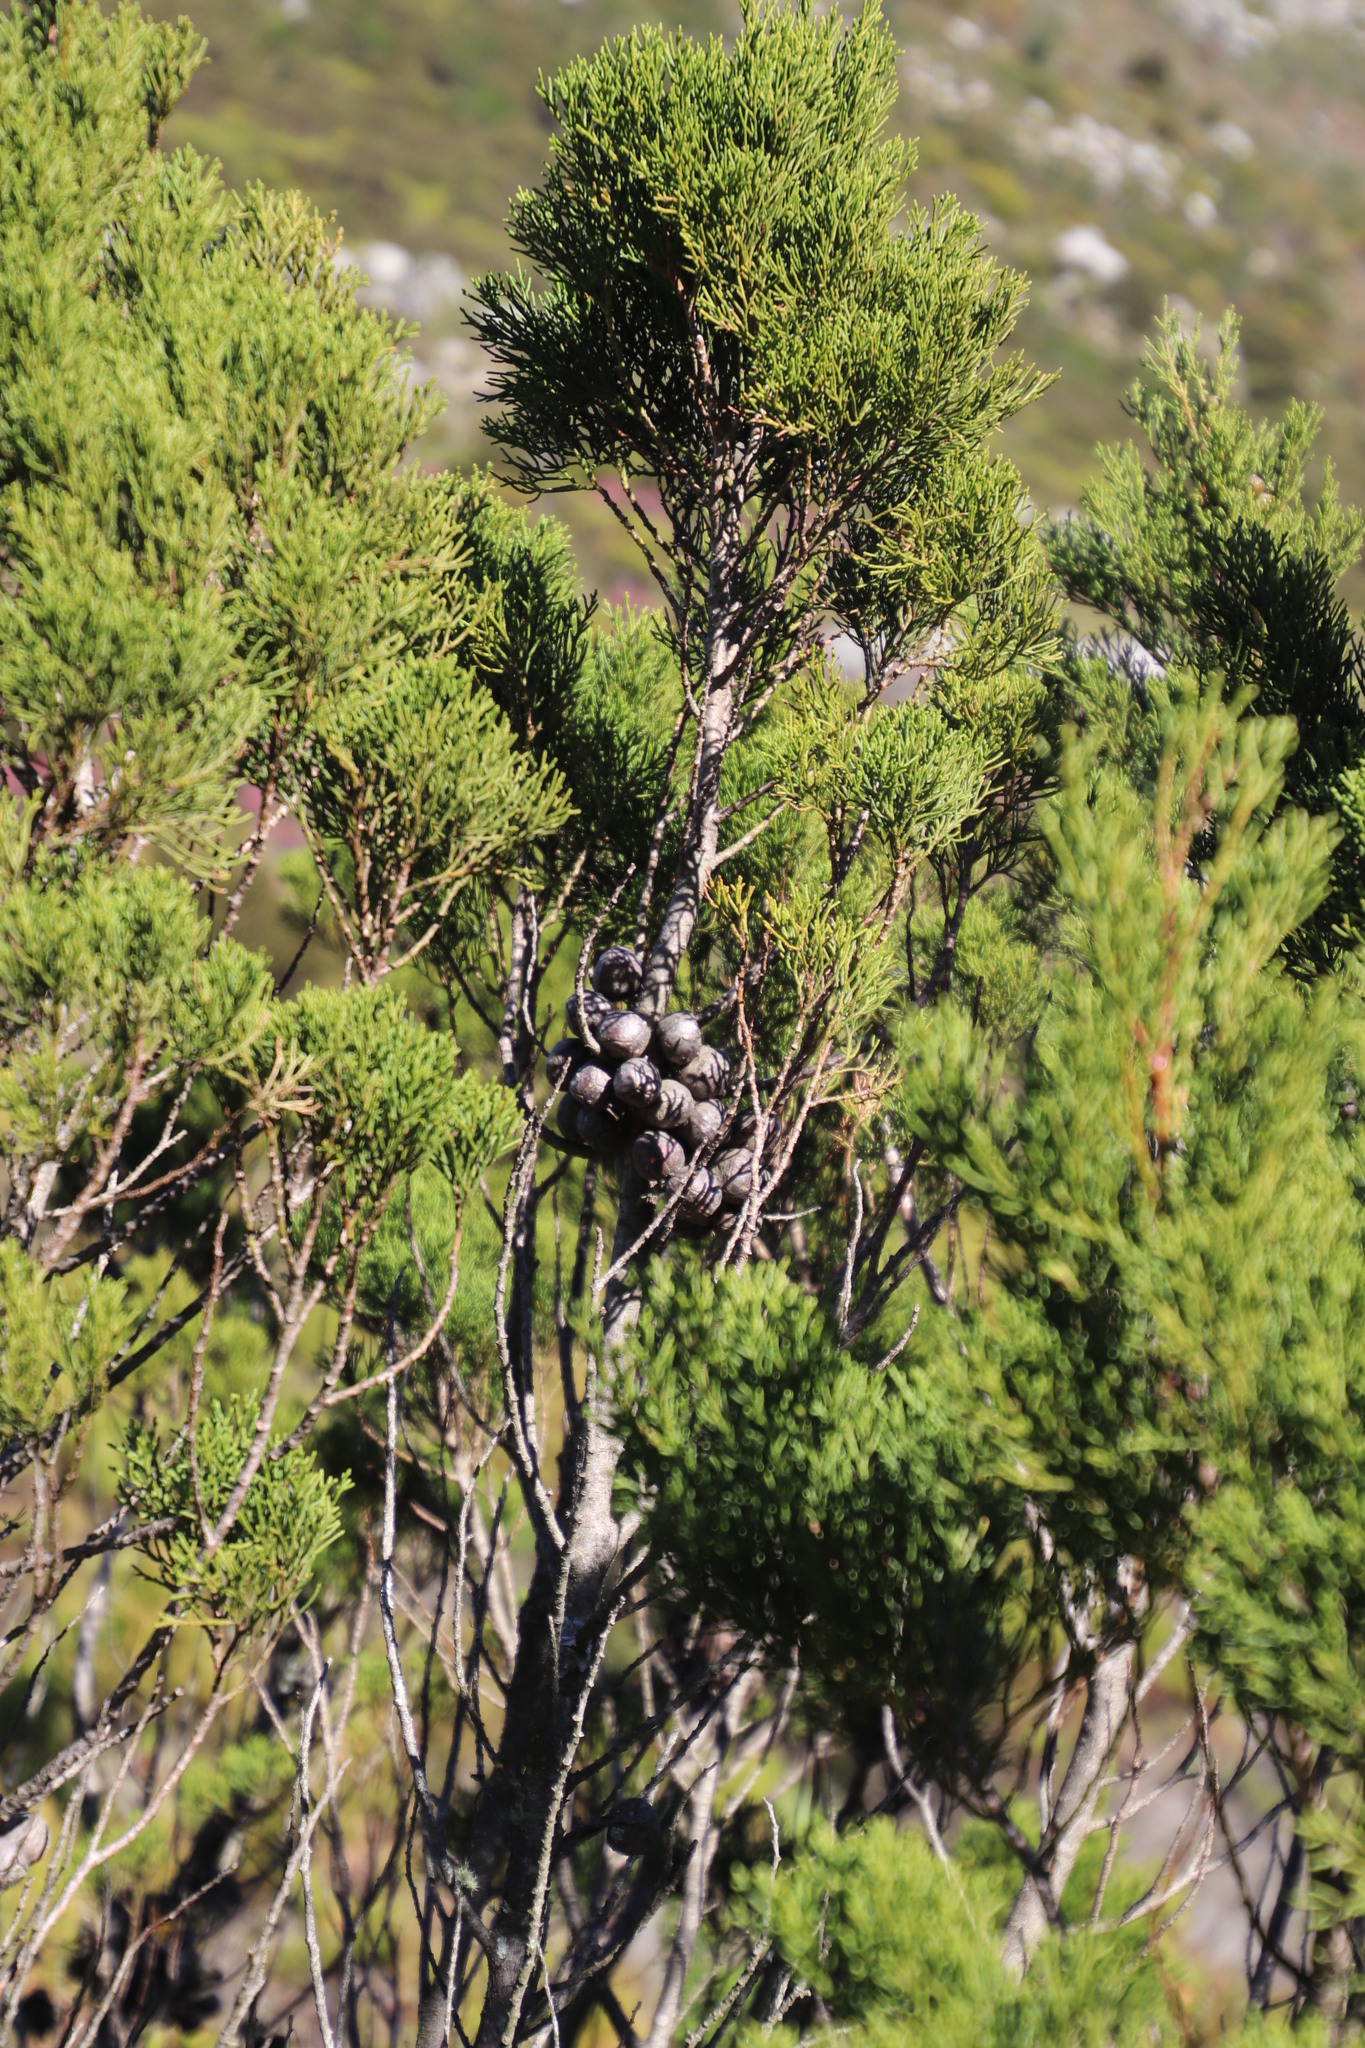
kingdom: Plantae
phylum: Tracheophyta
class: Pinopsida
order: Pinales
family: Cupressaceae
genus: Widdringtonia
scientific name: Widdringtonia nodiflora
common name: Cape cypress
